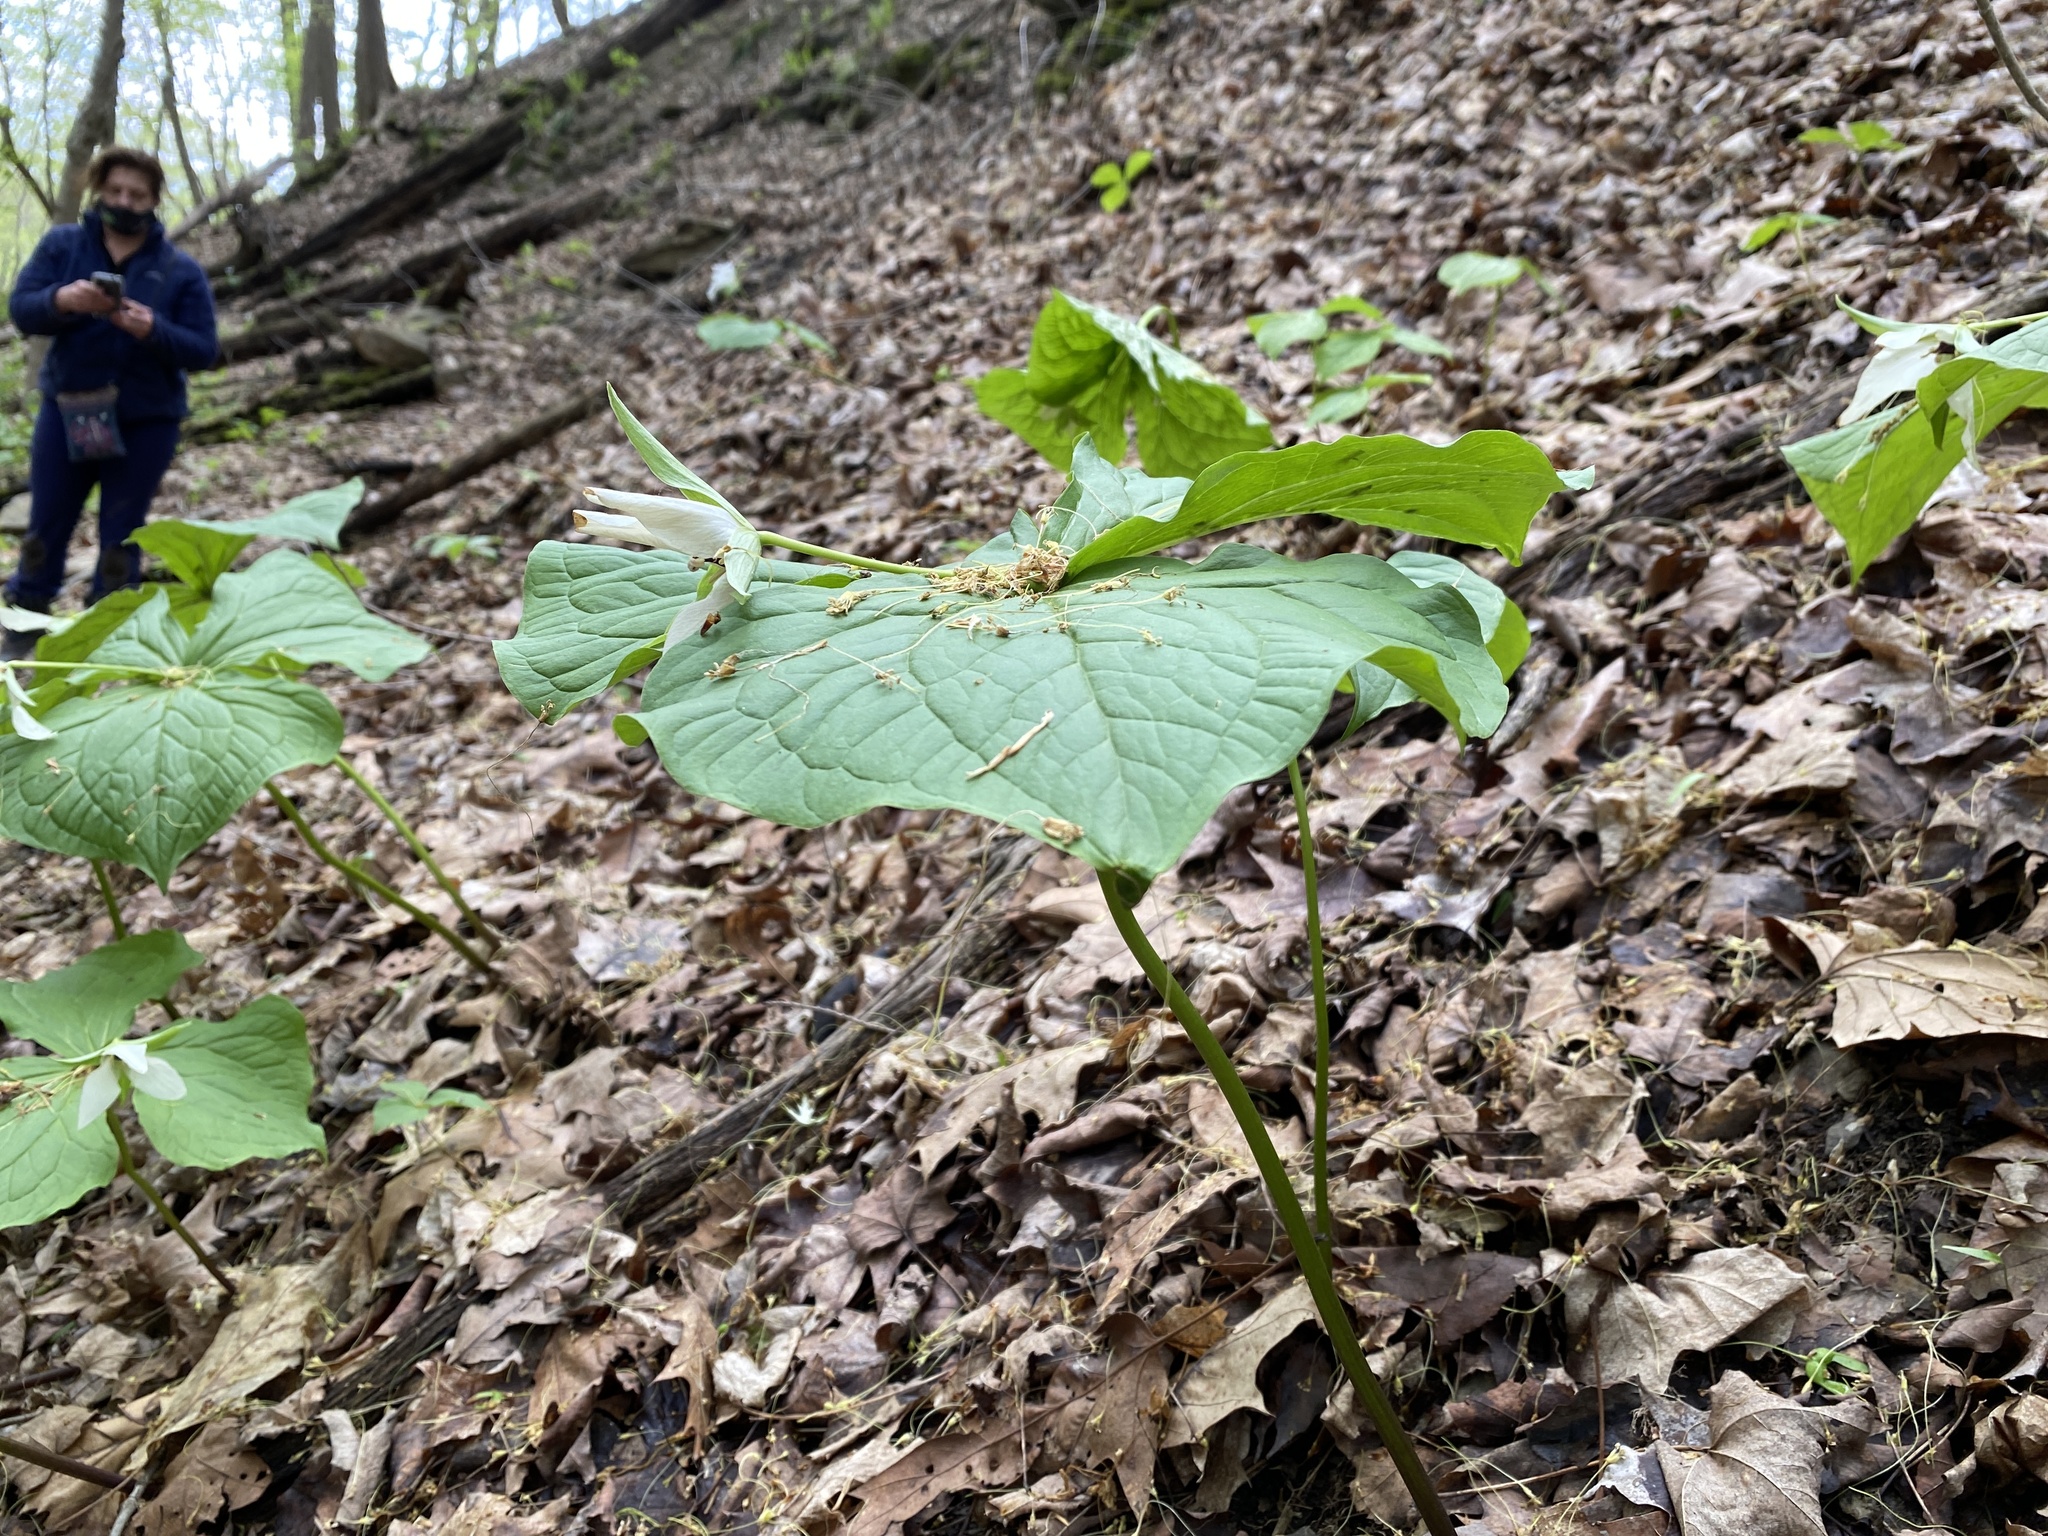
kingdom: Plantae
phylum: Tracheophyta
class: Liliopsida
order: Liliales
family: Melanthiaceae
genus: Trillium
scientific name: Trillium erectum
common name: Purple trillium
